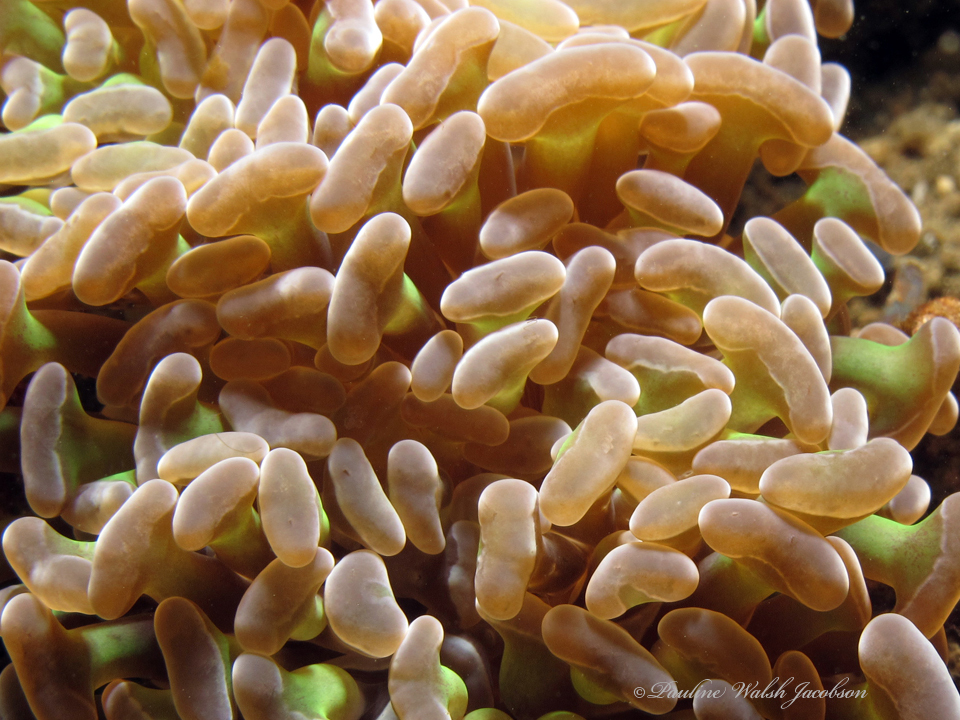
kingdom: Animalia
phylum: Cnidaria
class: Anthozoa
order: Scleractinia
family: Euphylliidae
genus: Fimbriaphyllia
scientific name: Fimbriaphyllia ancora
